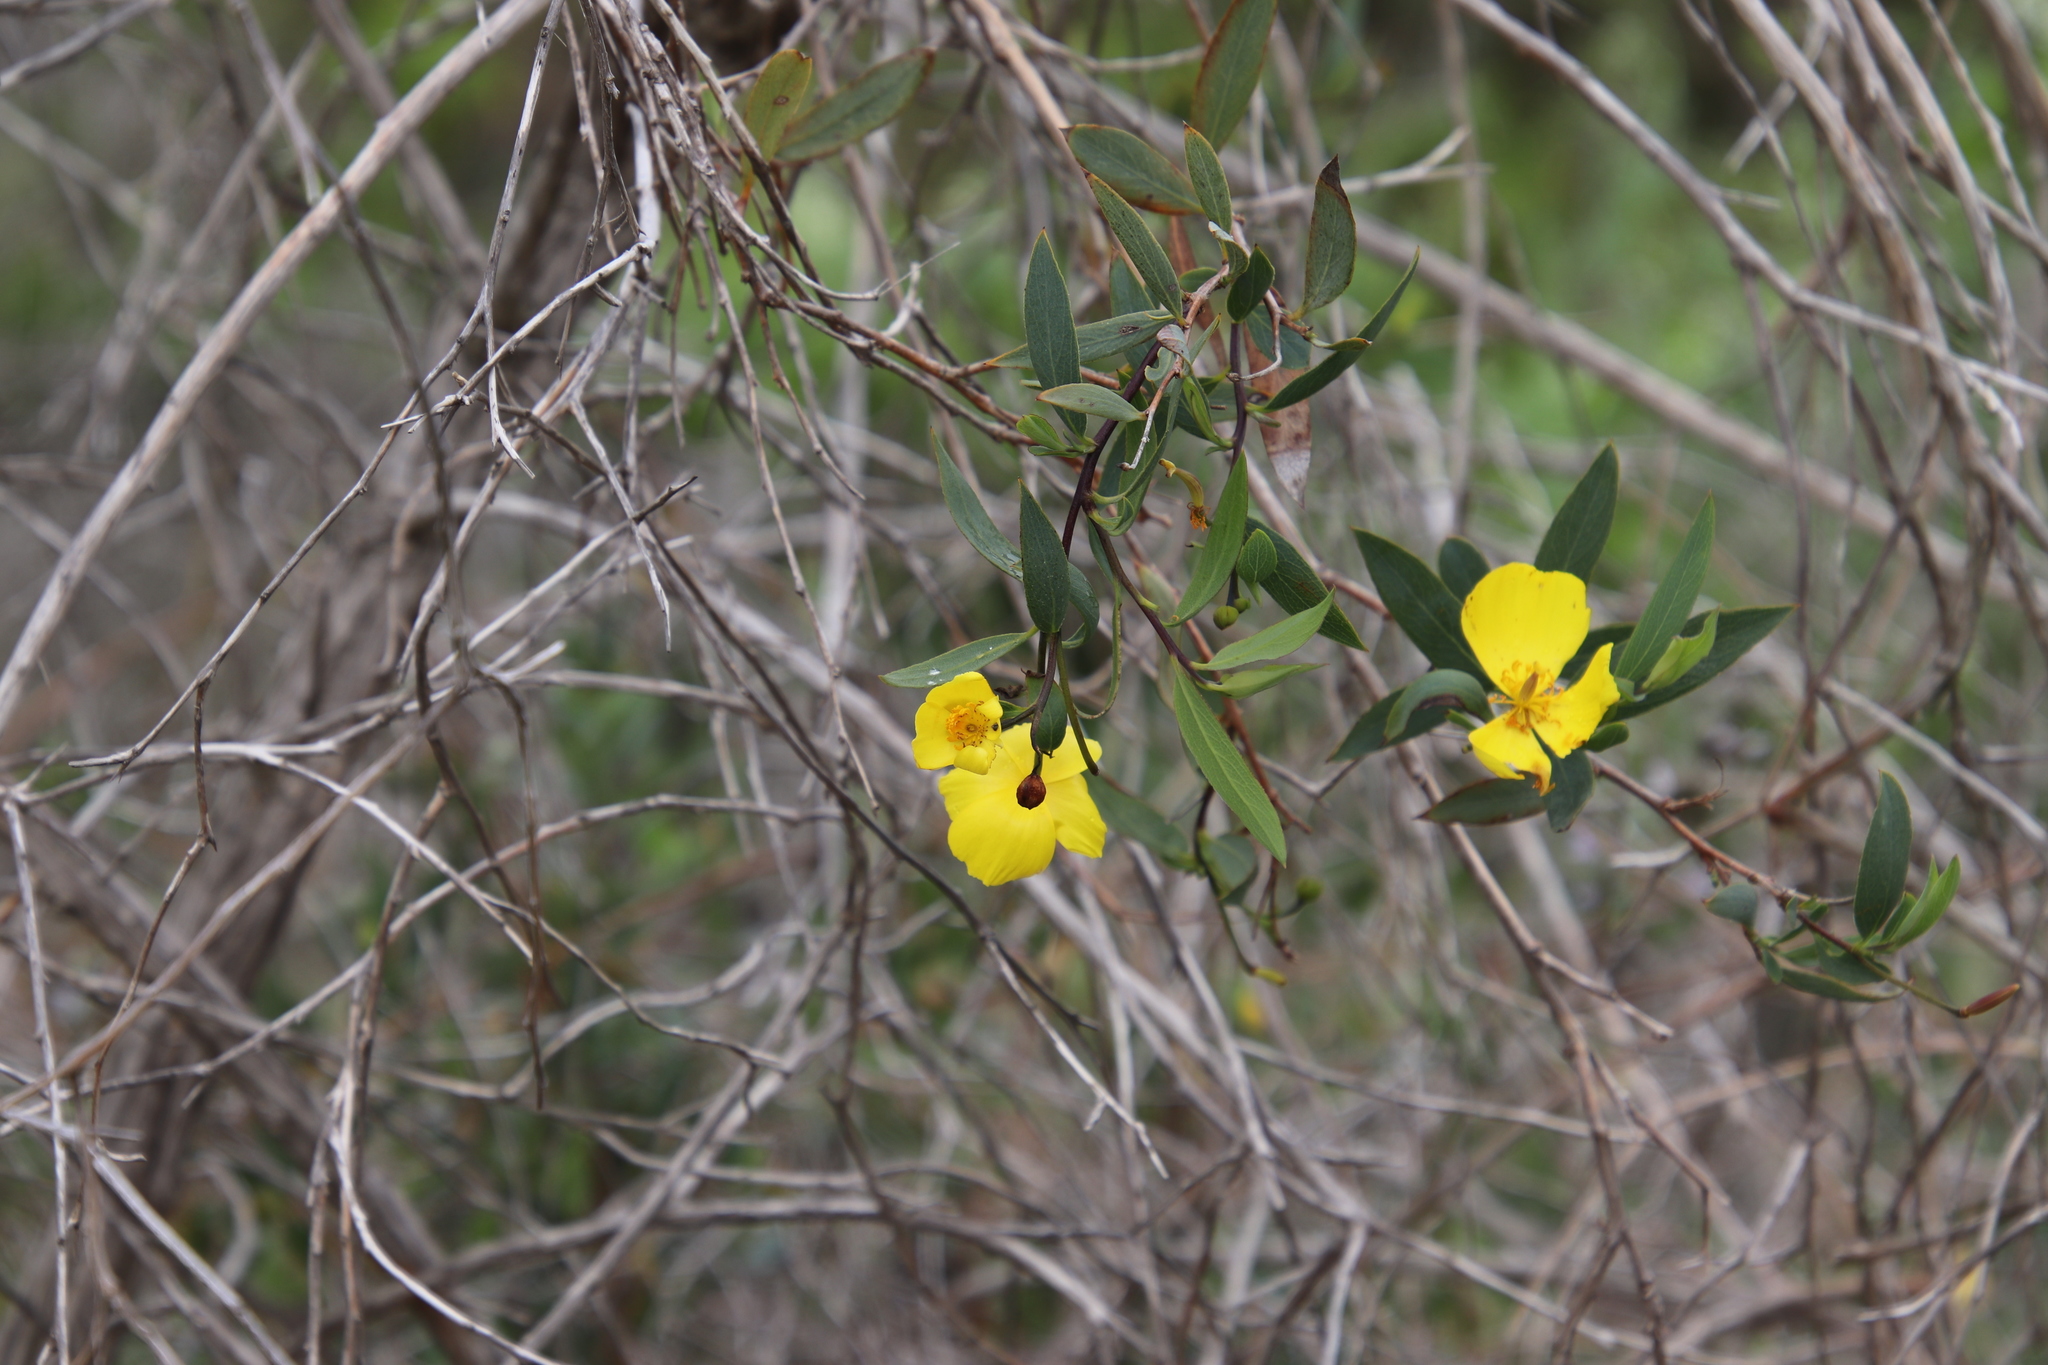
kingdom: Plantae
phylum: Tracheophyta
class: Magnoliopsida
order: Ranunculales
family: Papaveraceae
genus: Dendromecon
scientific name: Dendromecon rigida
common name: Tree poppy
